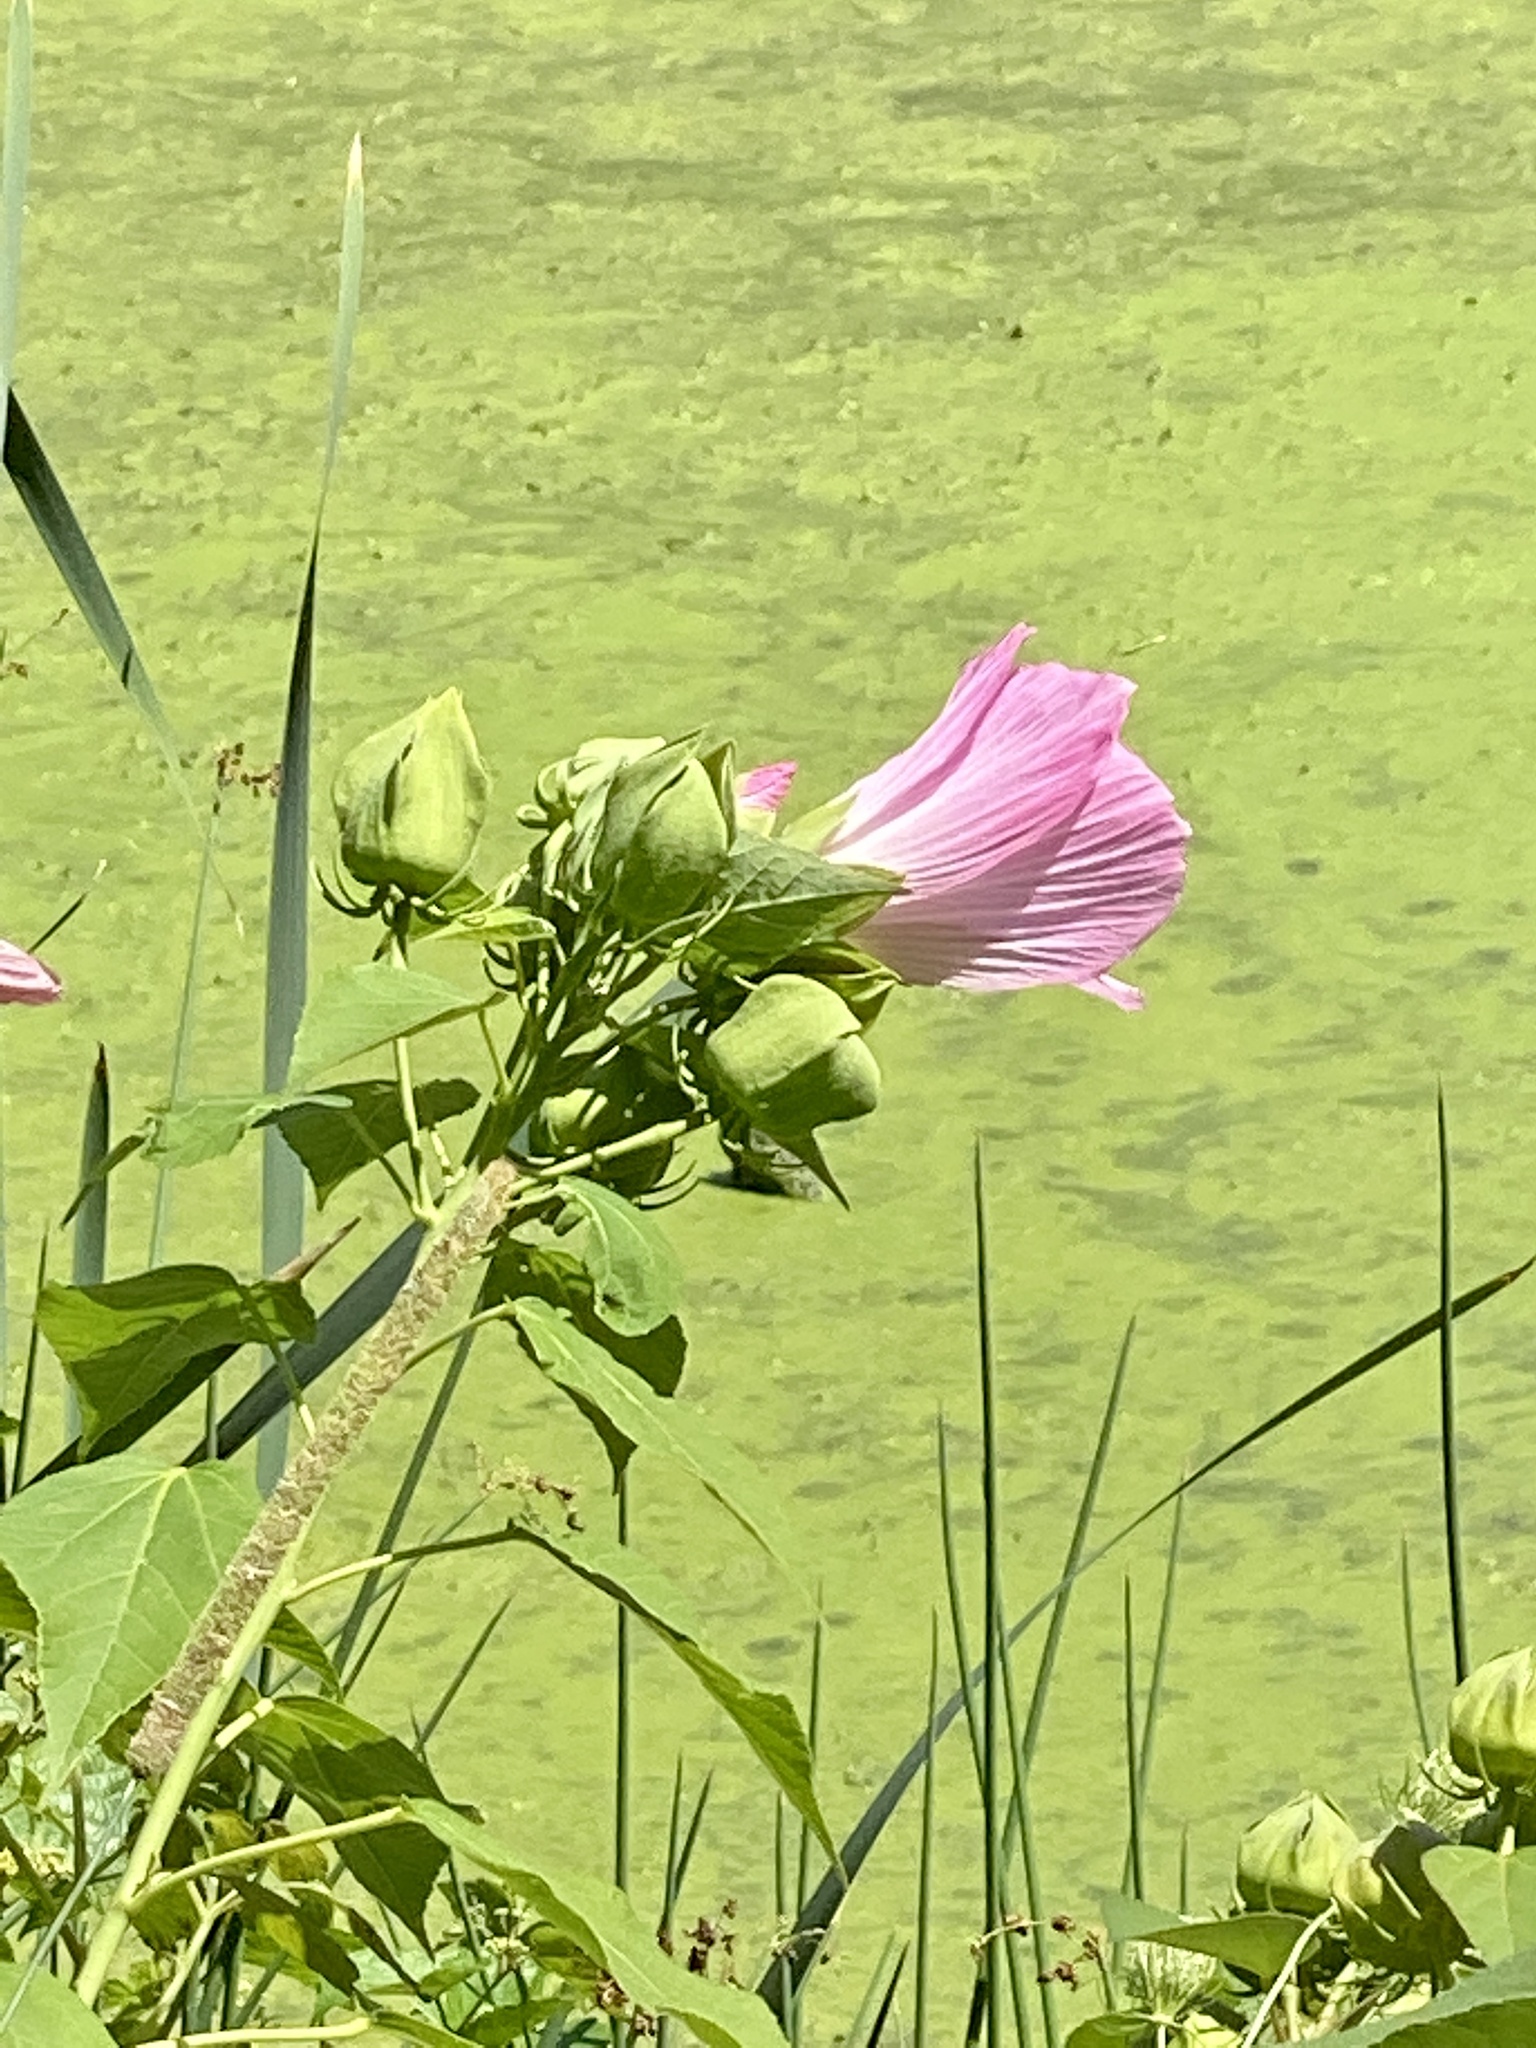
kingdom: Plantae
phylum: Tracheophyta
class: Magnoliopsida
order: Malvales
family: Malvaceae
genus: Hibiscus
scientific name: Hibiscus moscheutos
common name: Common rose-mallow
